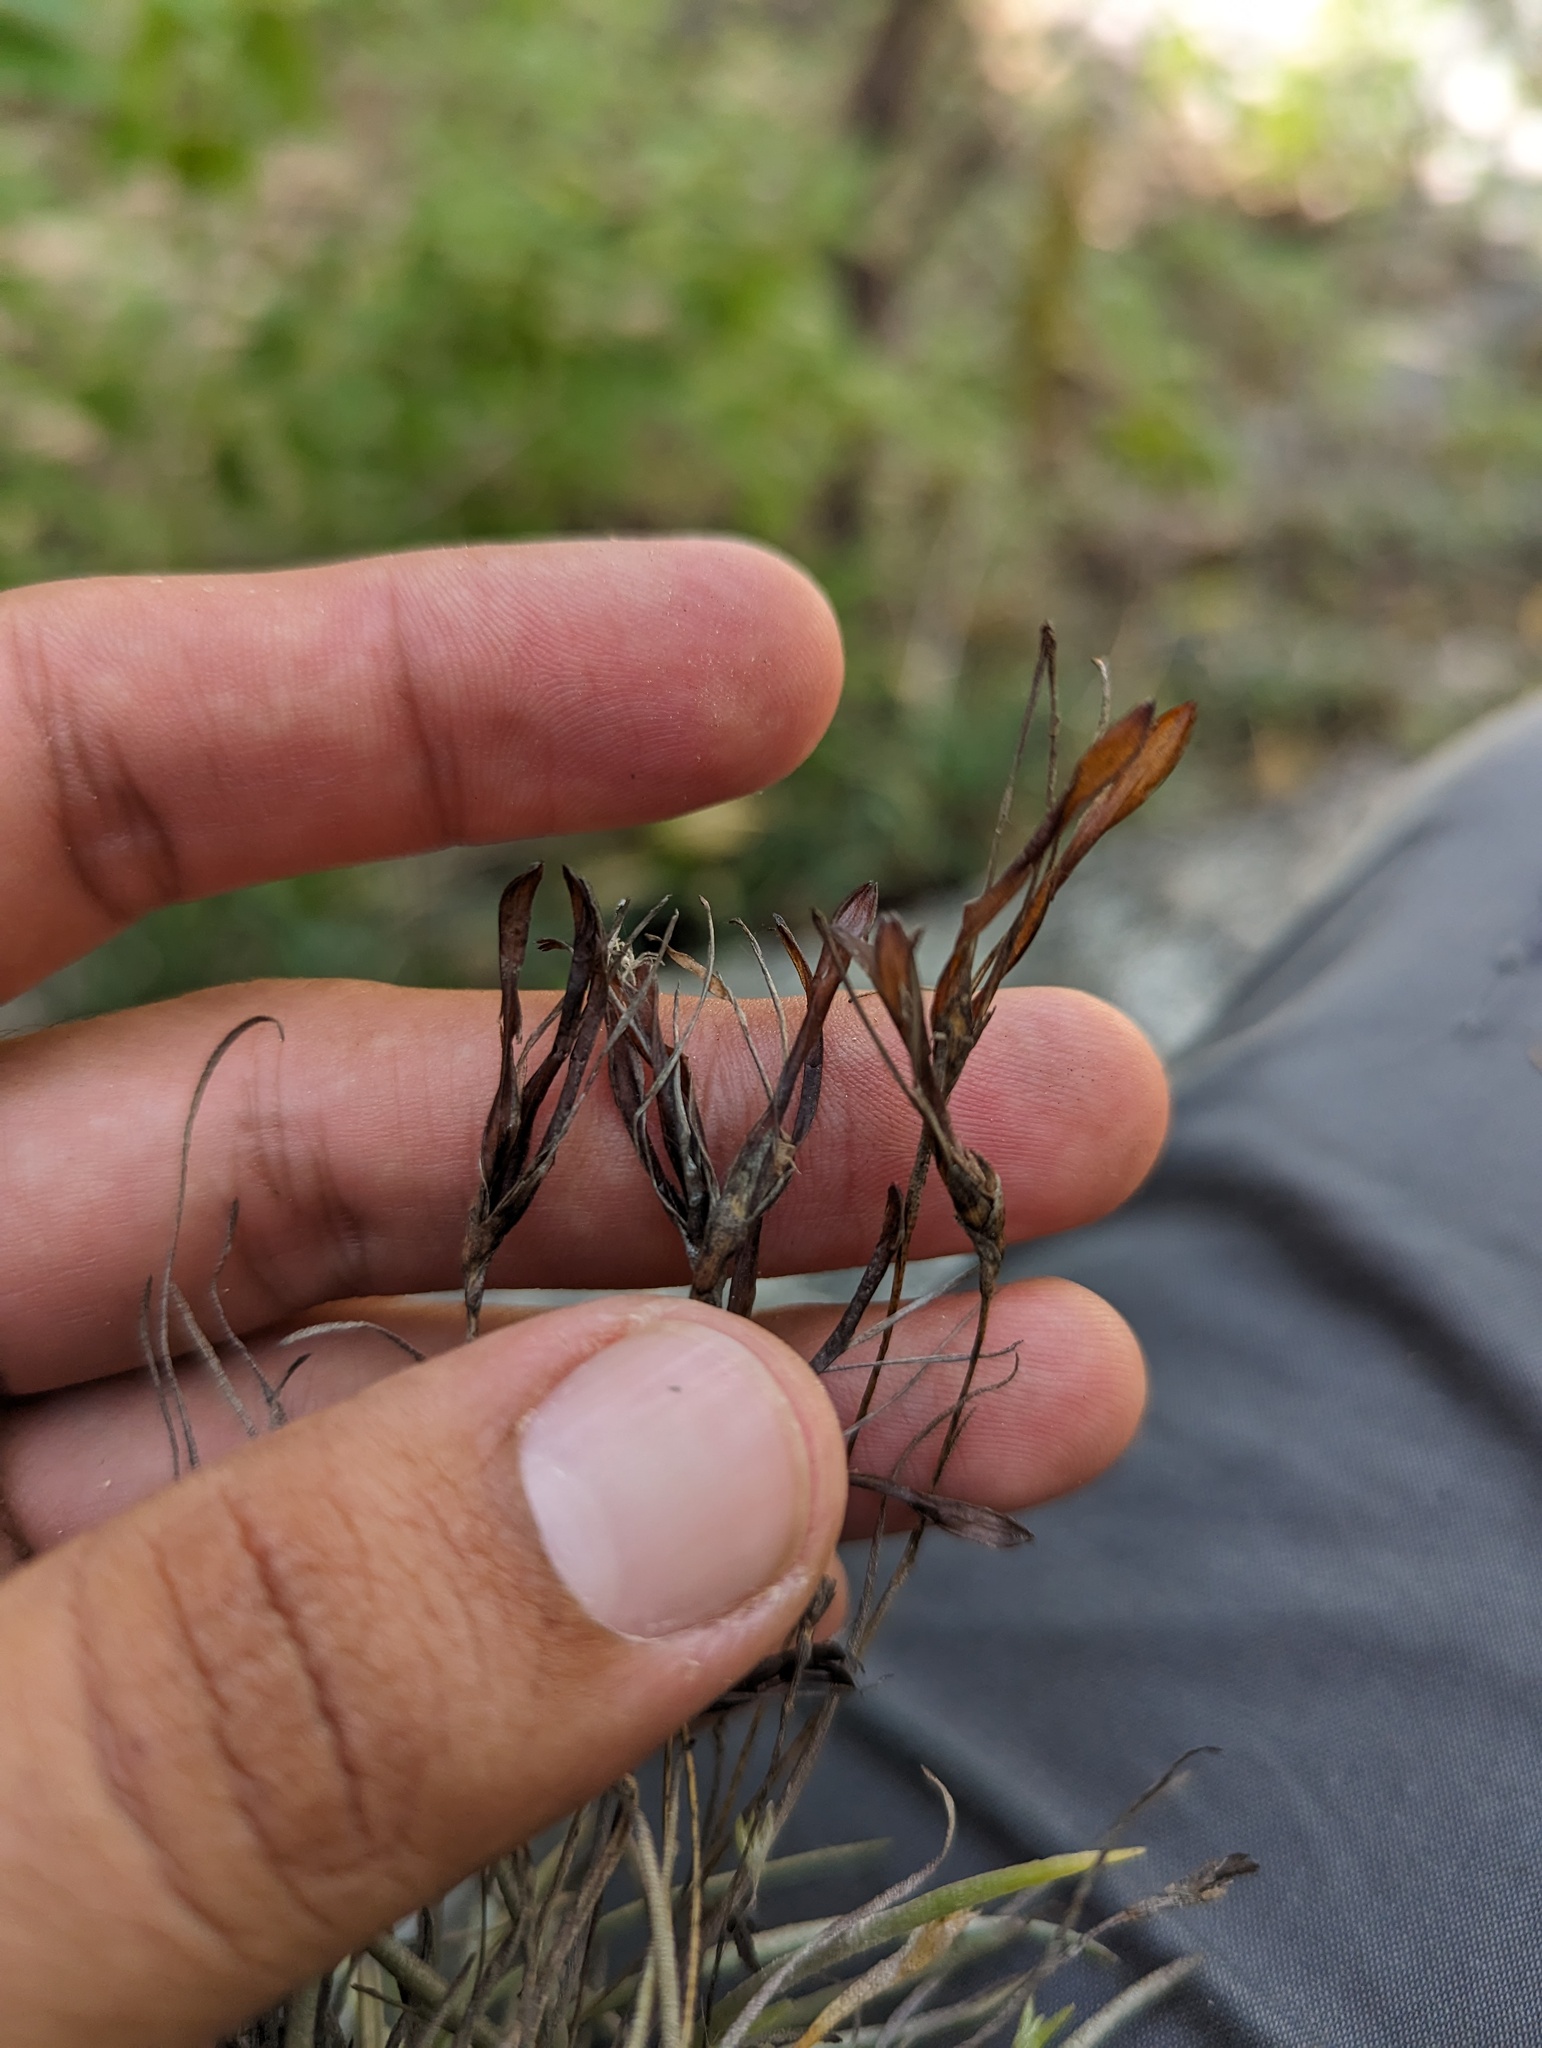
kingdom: Plantae
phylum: Tracheophyta
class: Liliopsida
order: Poales
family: Bromeliaceae
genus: Tillandsia
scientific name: Tillandsia recurvata
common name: Small ballmoss
